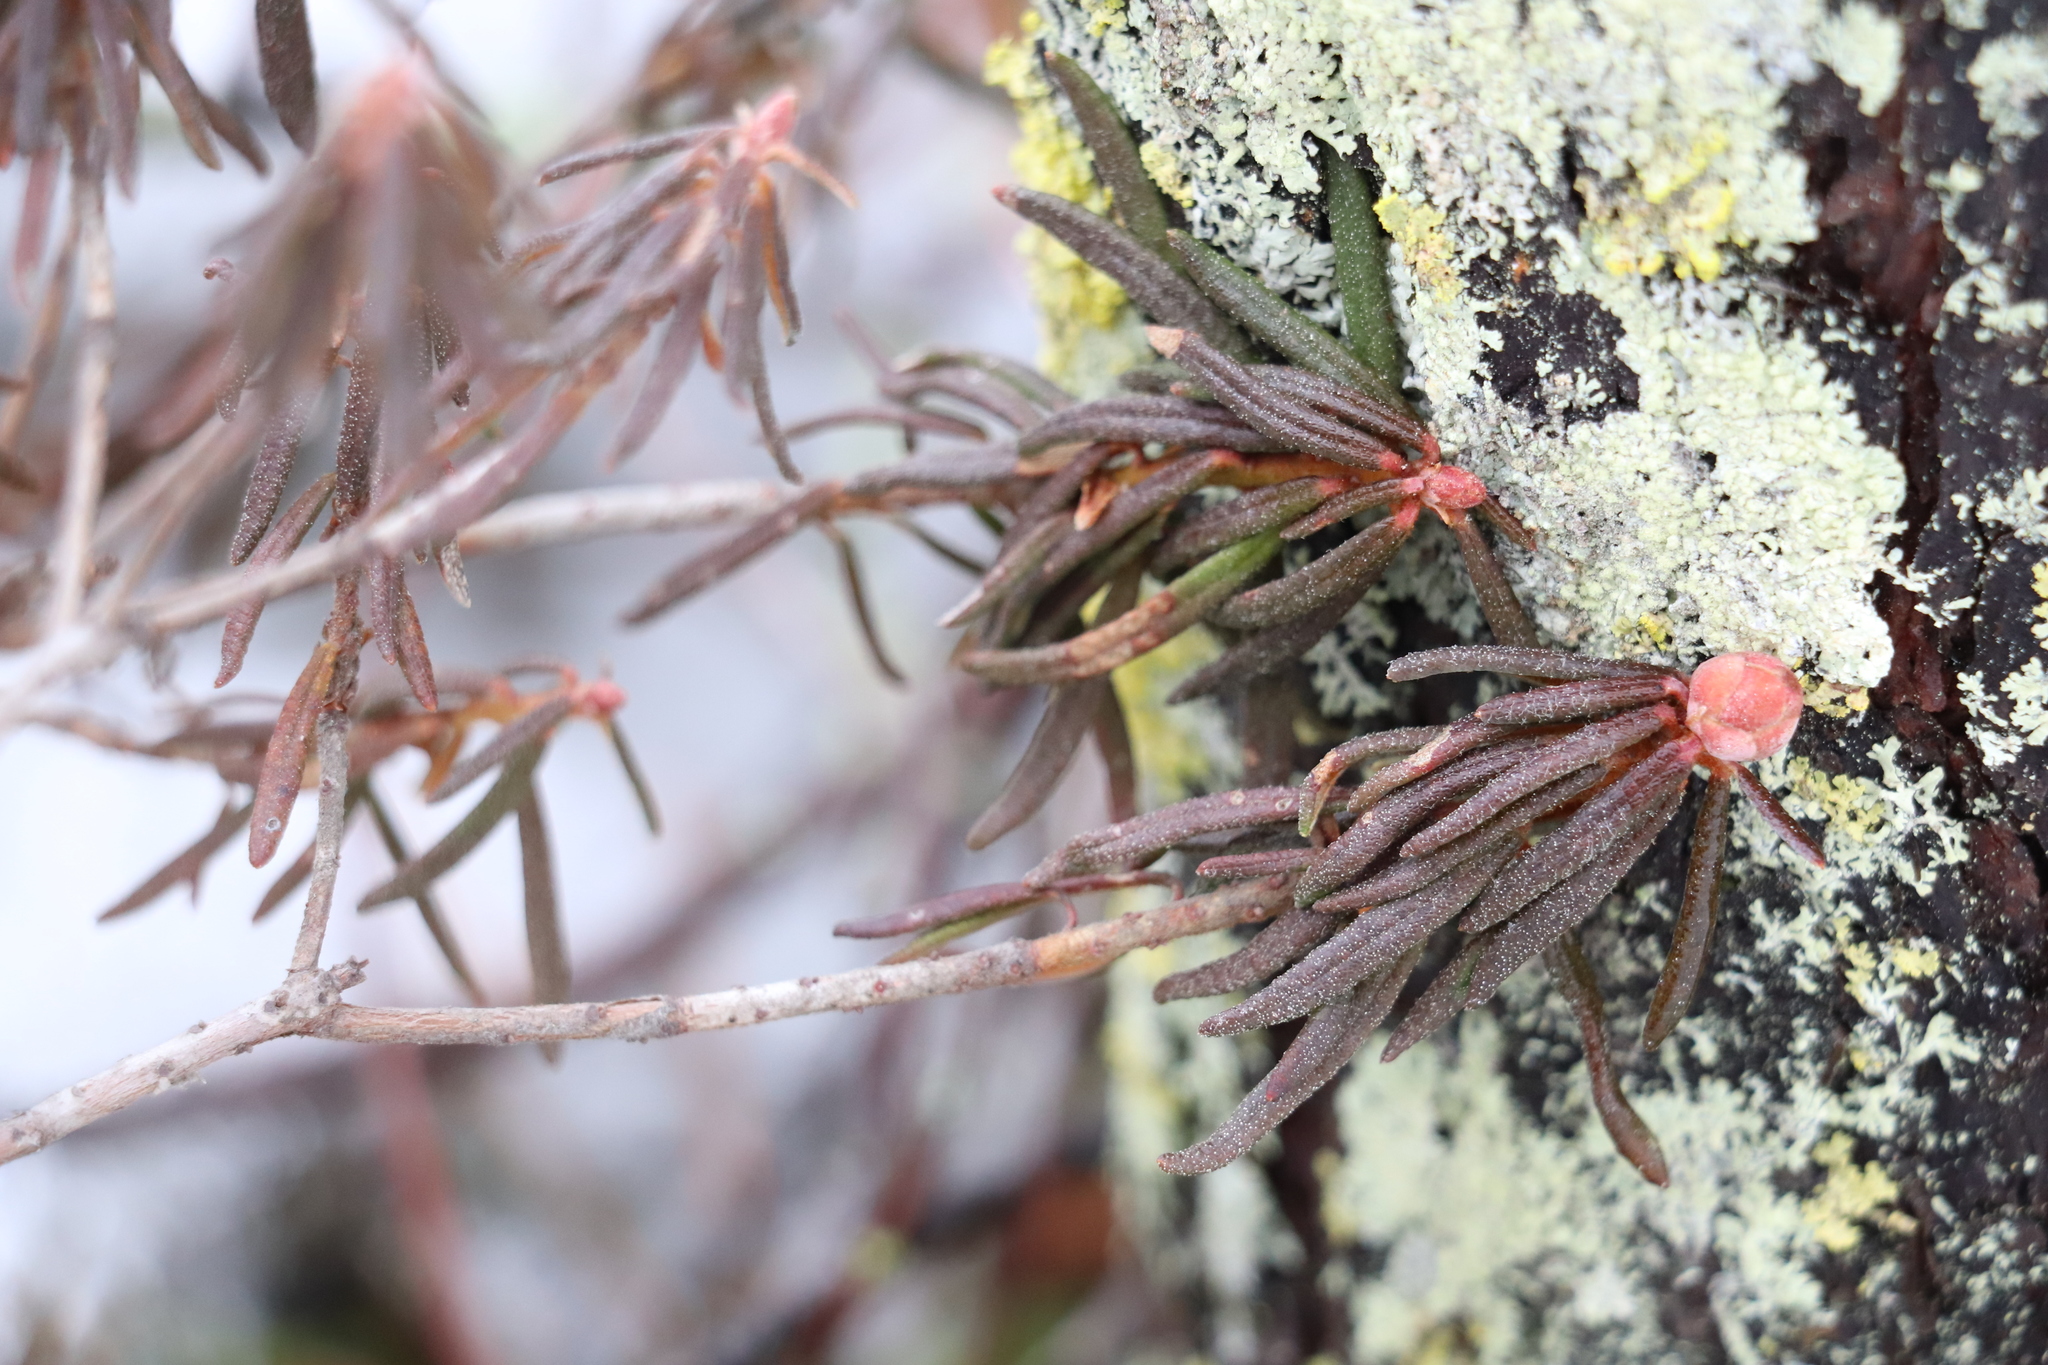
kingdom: Plantae
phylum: Tracheophyta
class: Magnoliopsida
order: Ericales
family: Ericaceae
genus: Rhododendron
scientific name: Rhododendron tomentosum
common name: Marsh labrador tea
